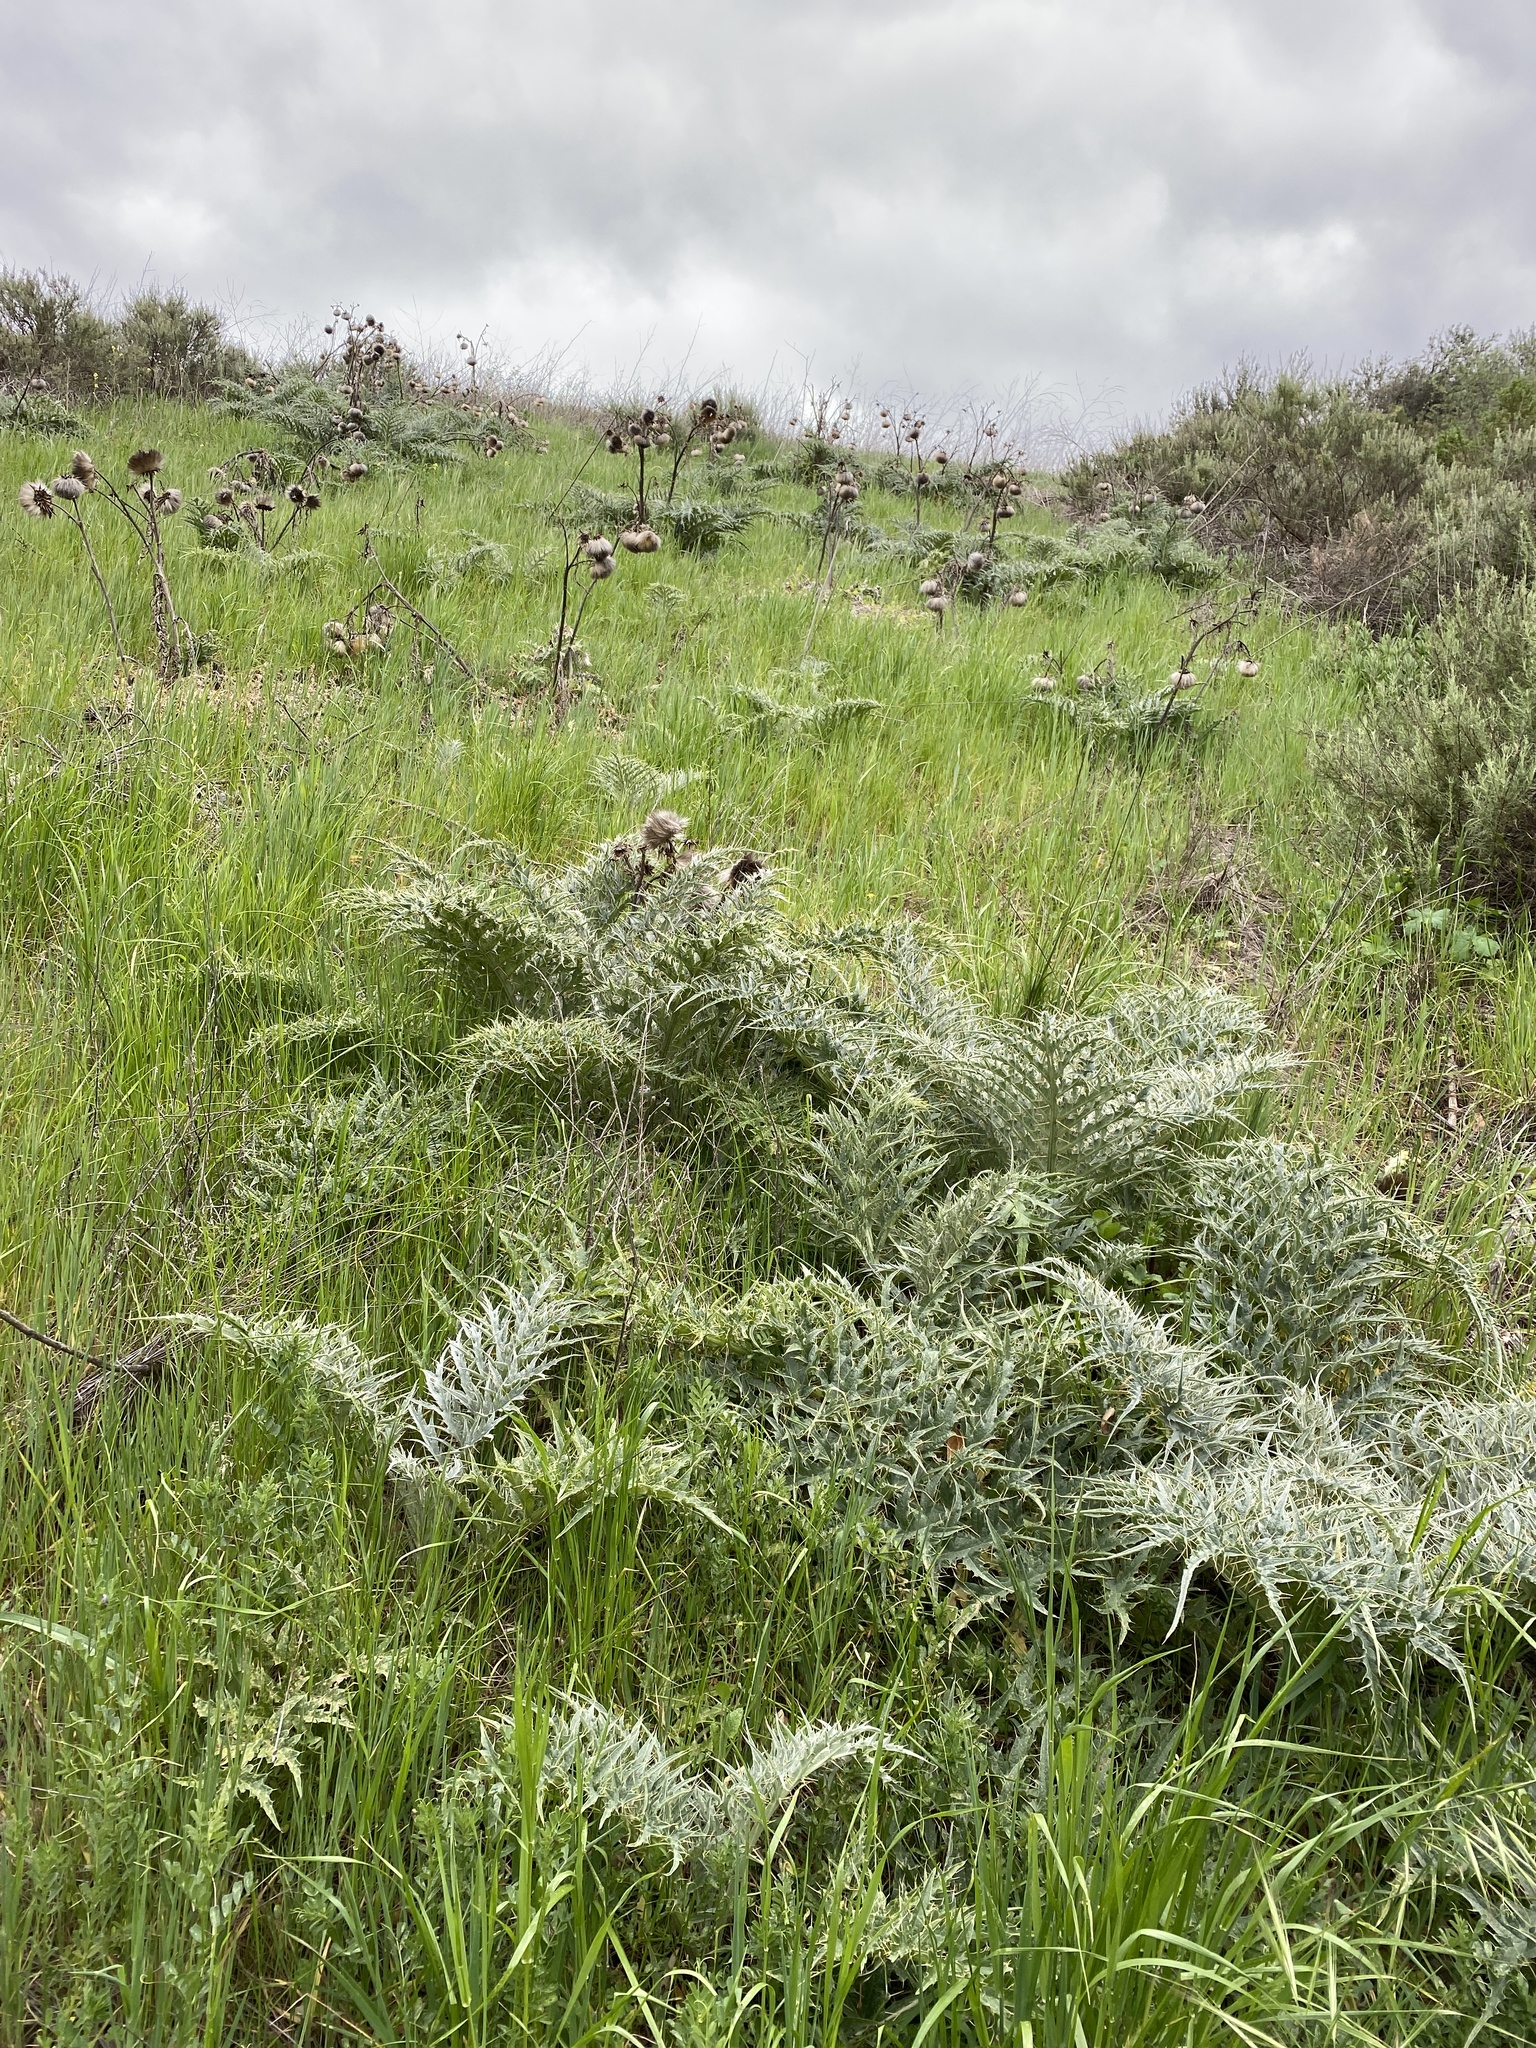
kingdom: Plantae
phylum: Tracheophyta
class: Magnoliopsida
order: Asterales
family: Asteraceae
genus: Cynara
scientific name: Cynara cardunculus
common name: Globe artichoke
